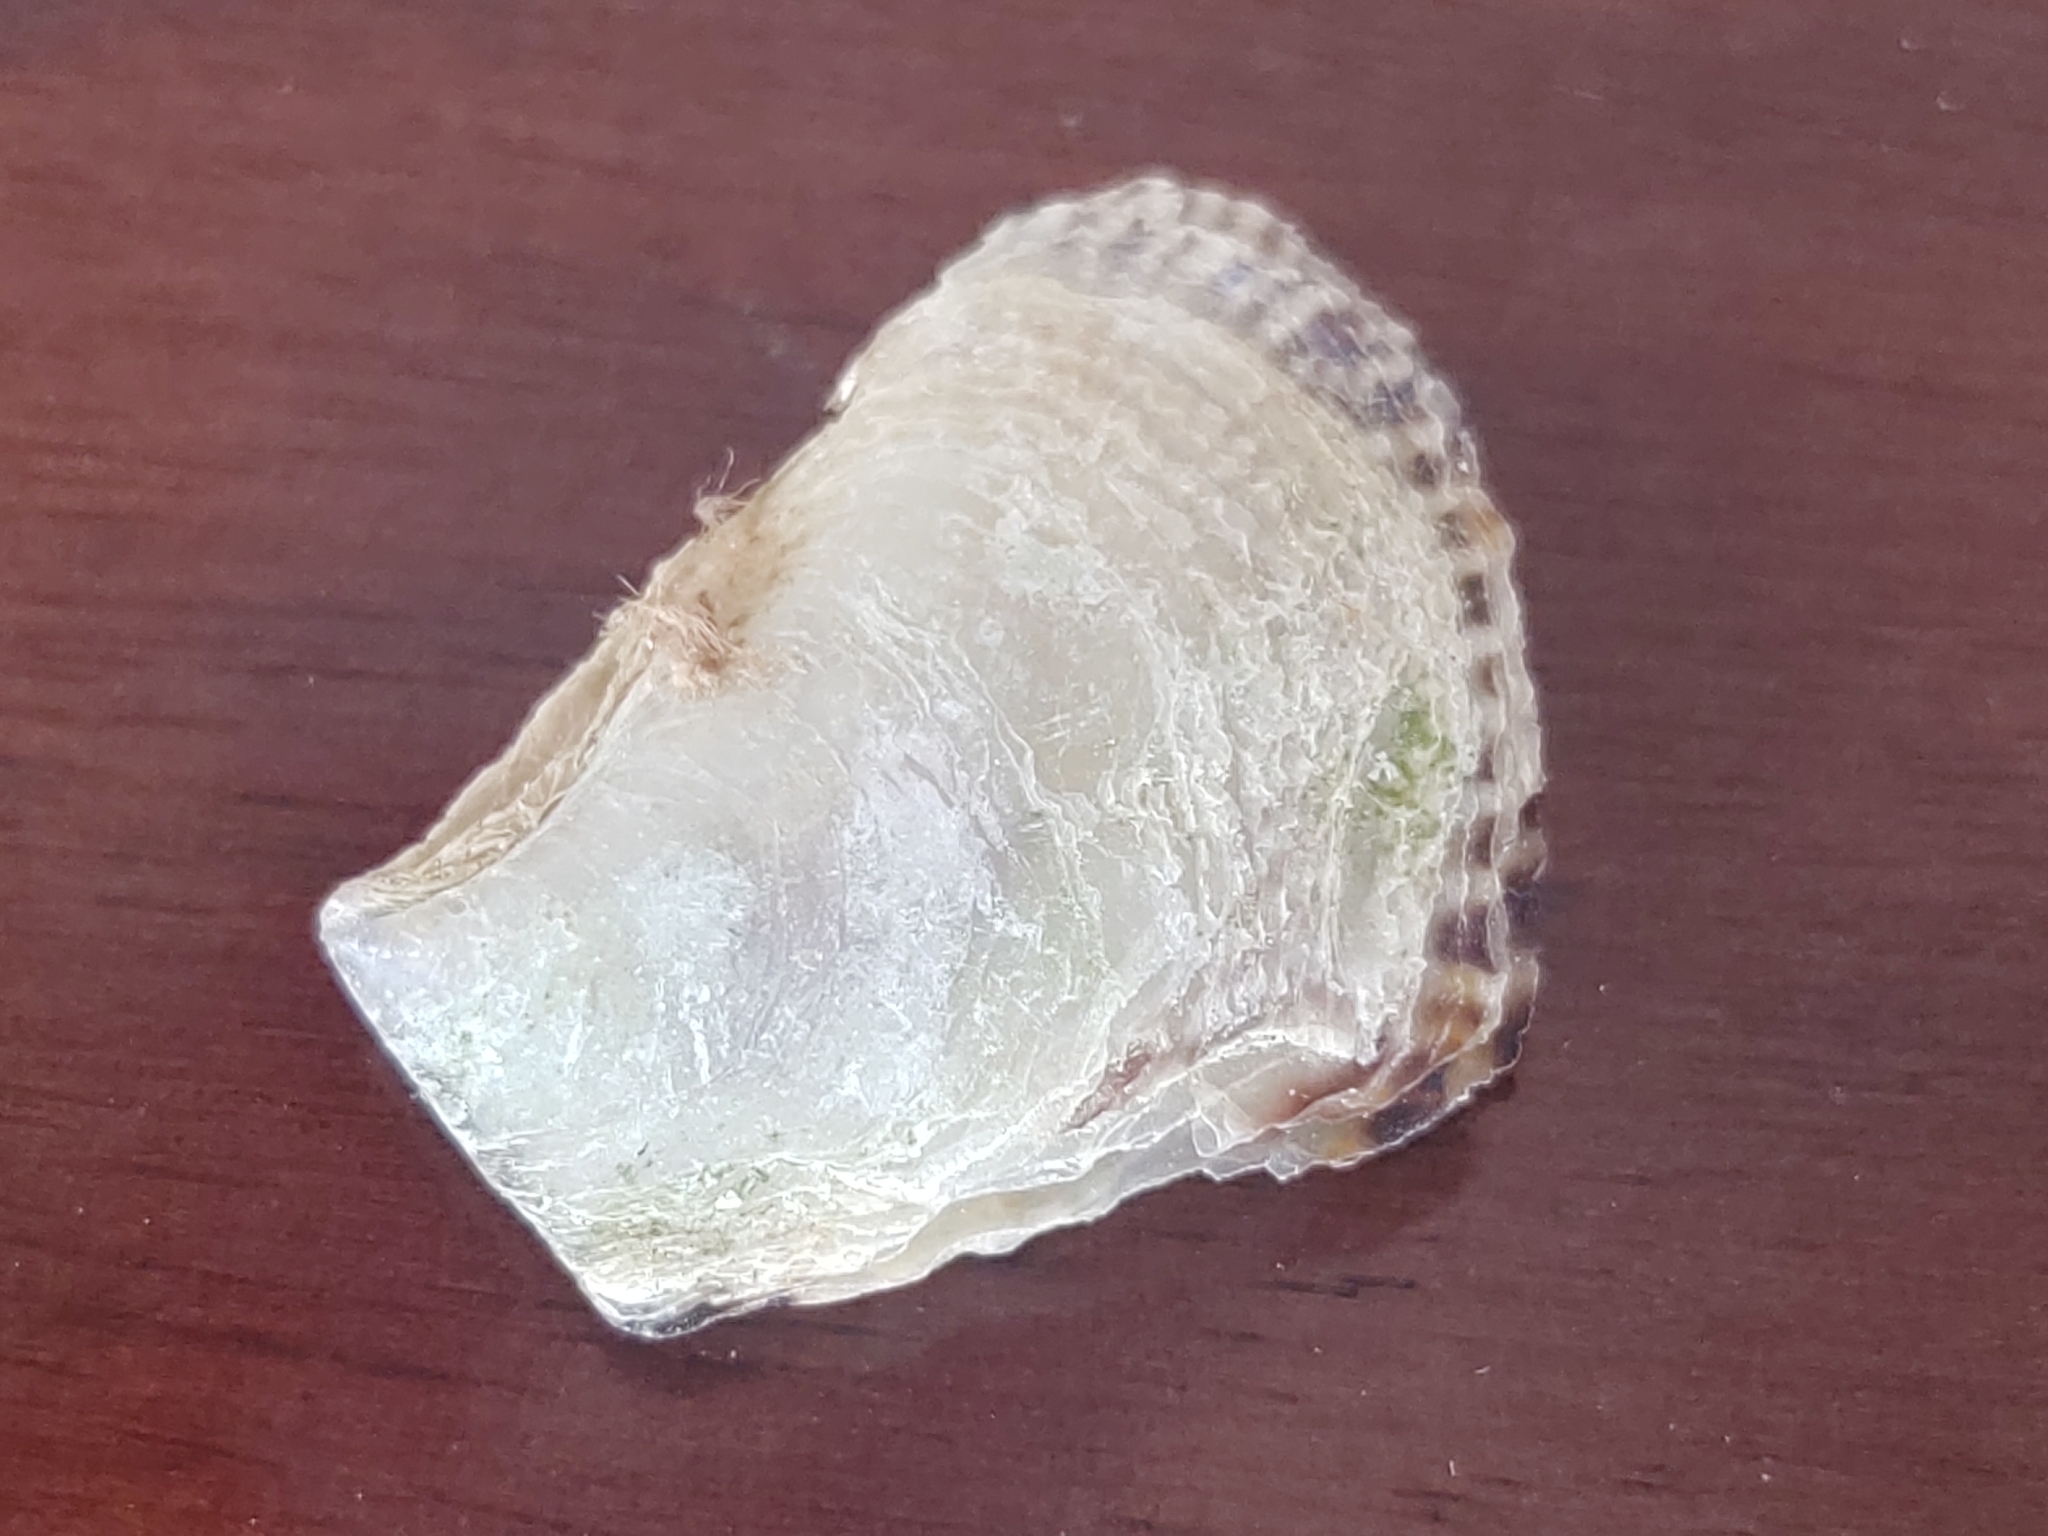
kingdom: Animalia
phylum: Mollusca
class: Bivalvia
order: Ostreida
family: Isognomonidae
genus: Isognomon
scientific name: Isognomon alatus
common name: Flat tree-oyster
